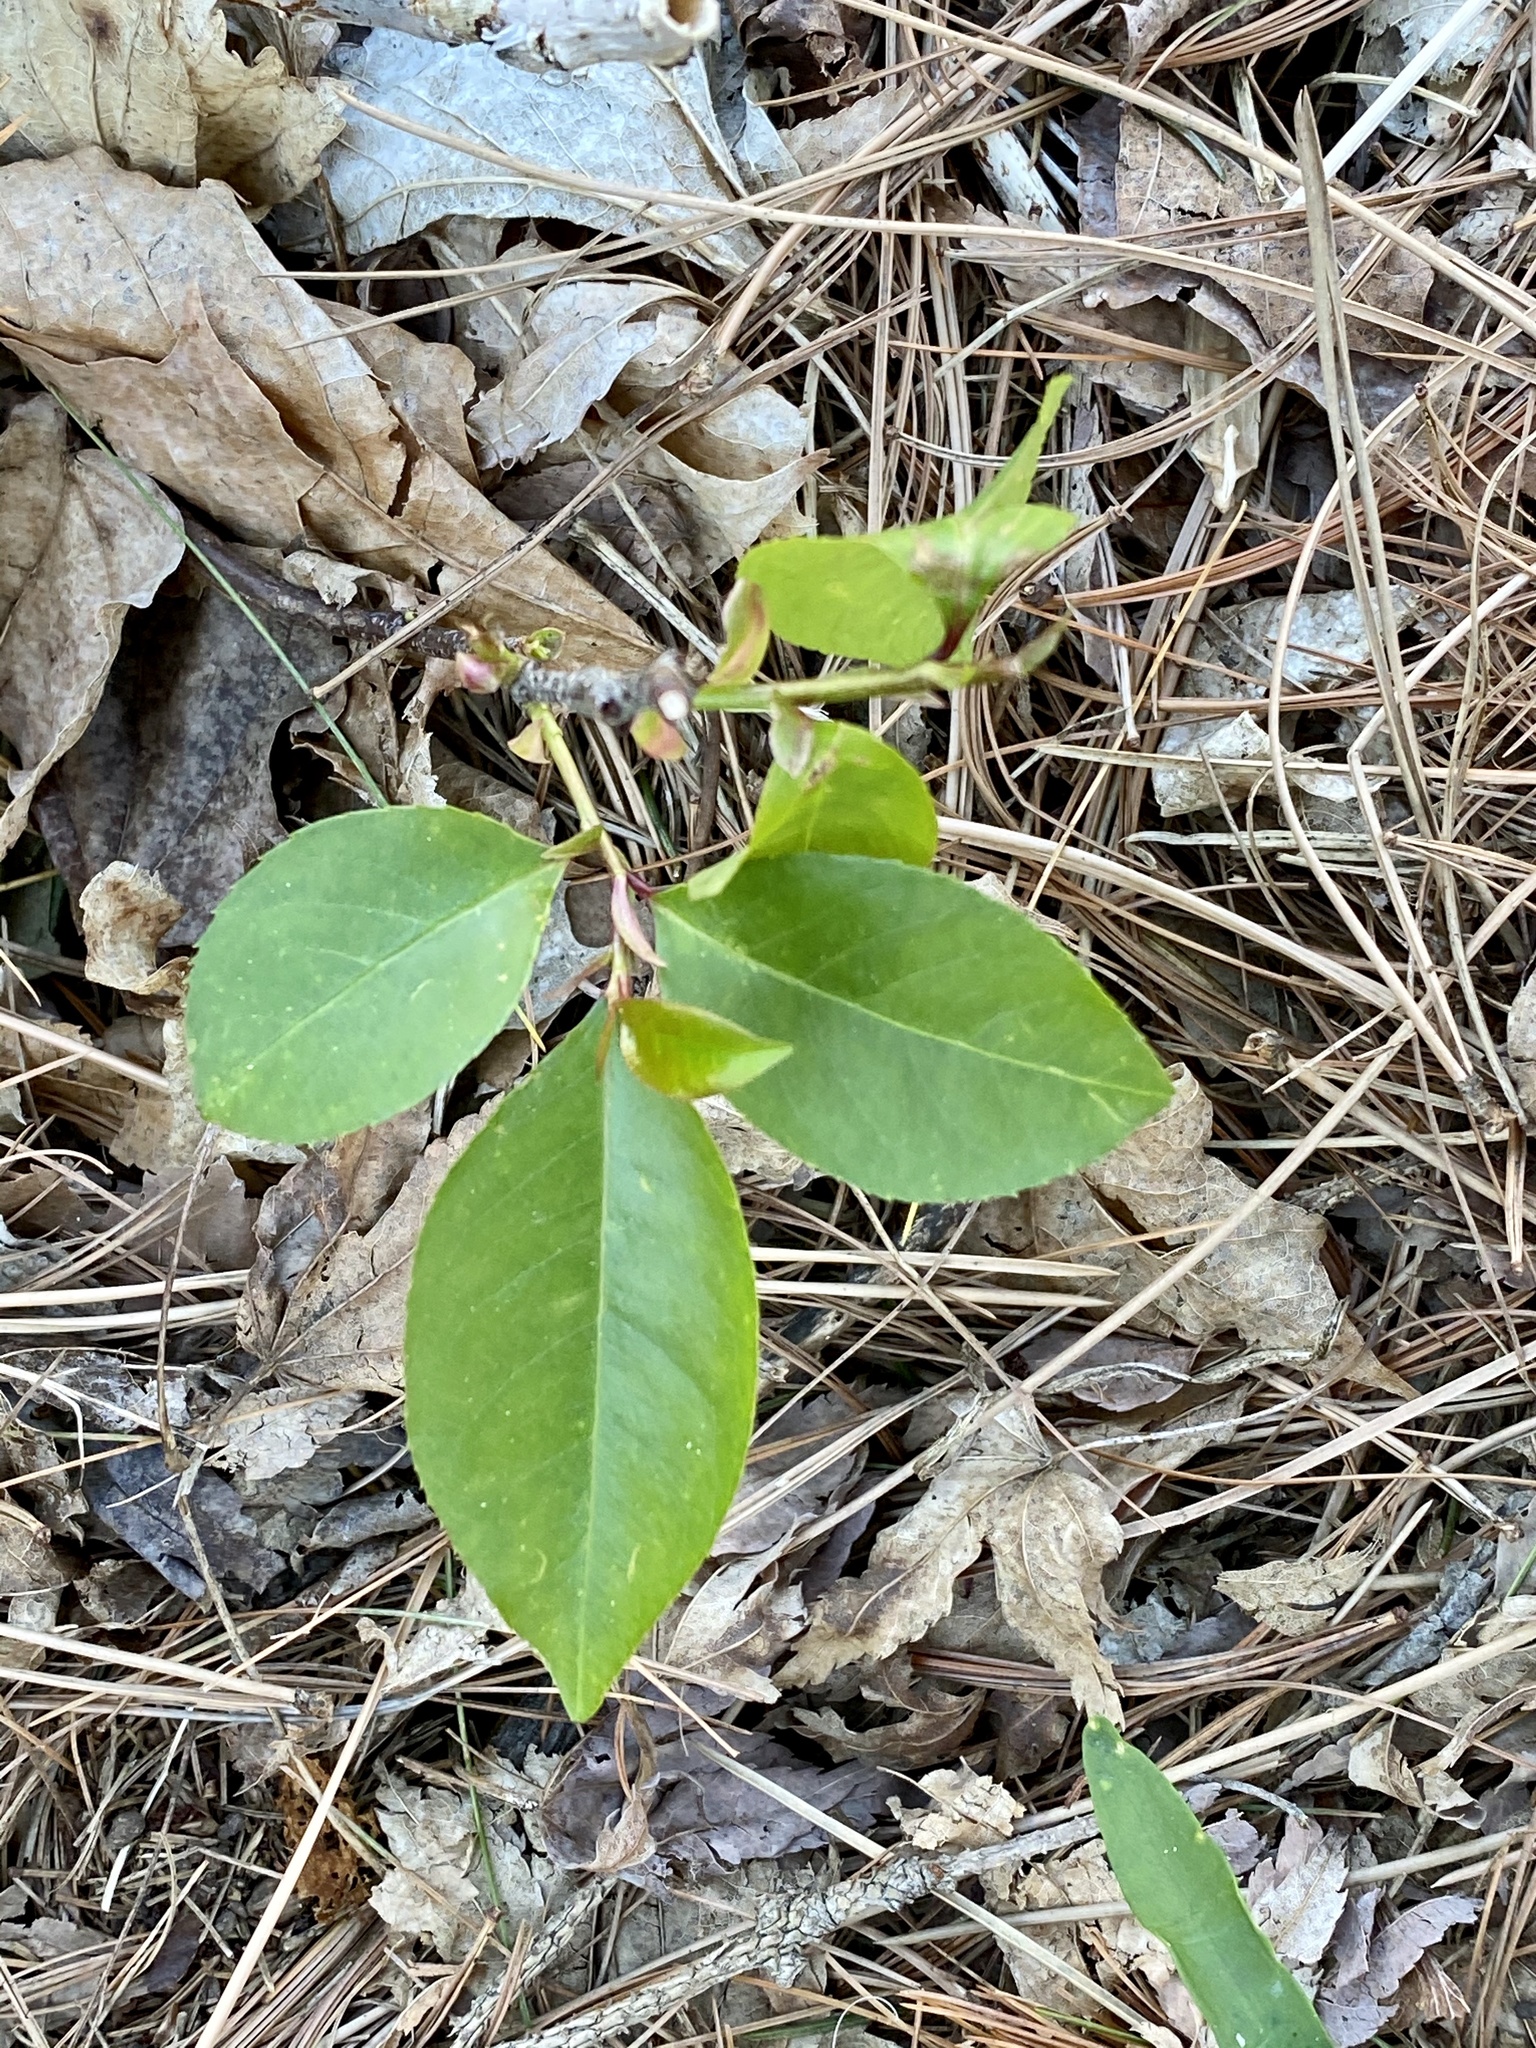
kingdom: Plantae
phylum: Tracheophyta
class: Magnoliopsida
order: Rosales
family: Rosaceae
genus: Prunus
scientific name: Prunus serotina
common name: Black cherry
